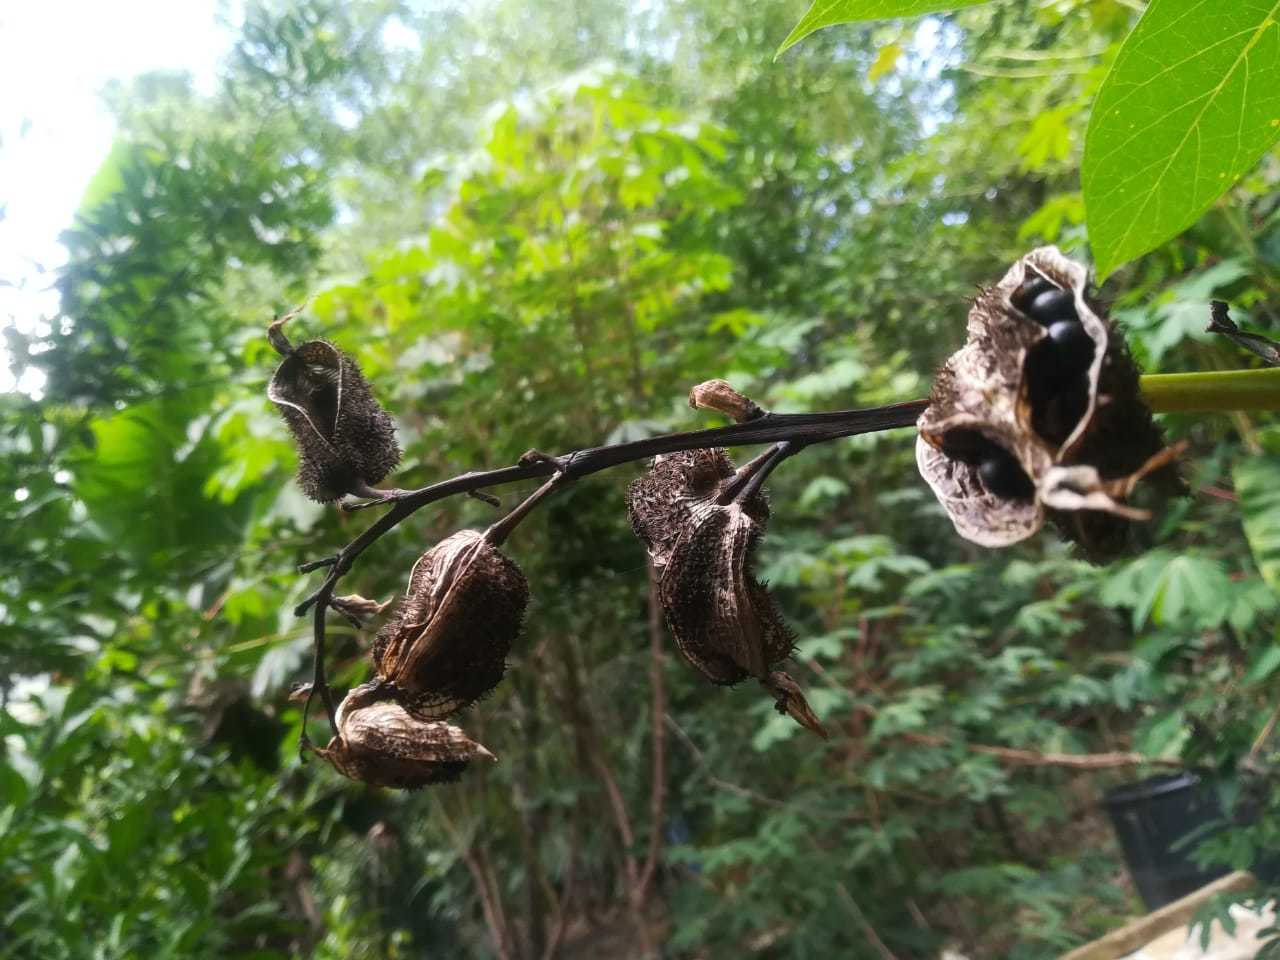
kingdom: Plantae
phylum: Tracheophyta
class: Liliopsida
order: Zingiberales
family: Cannaceae
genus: Canna
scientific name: Canna tuerckheimii
